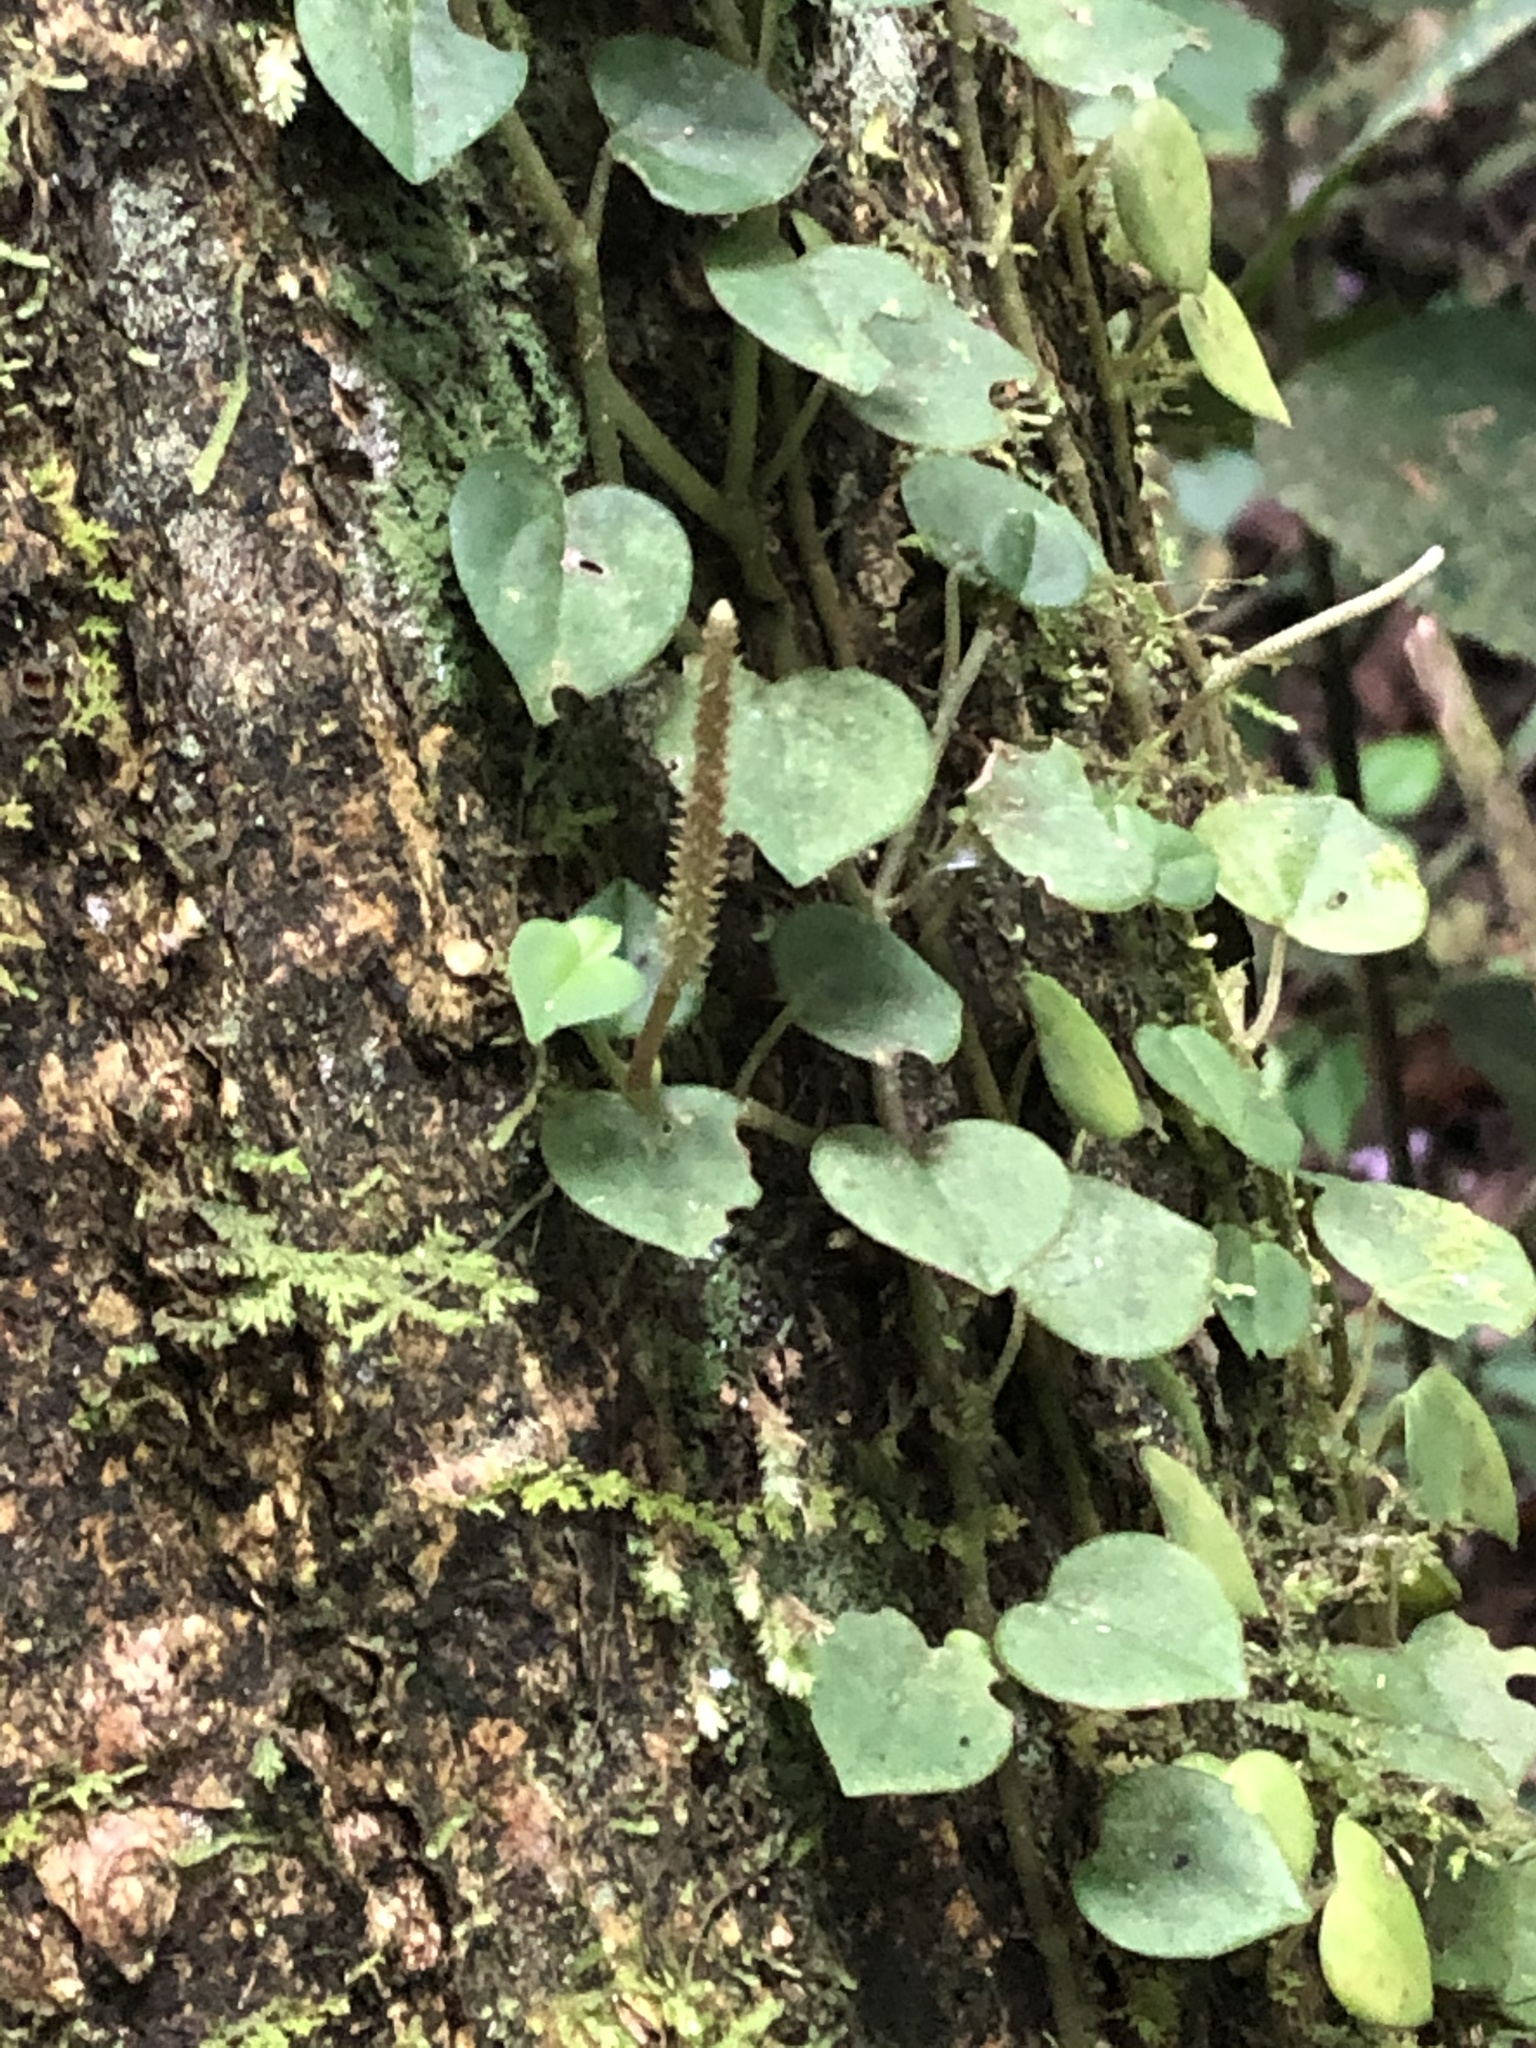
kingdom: Plantae
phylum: Tracheophyta
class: Magnoliopsida
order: Piperales
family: Piperaceae
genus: Peperomia
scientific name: Peperomia serpens
